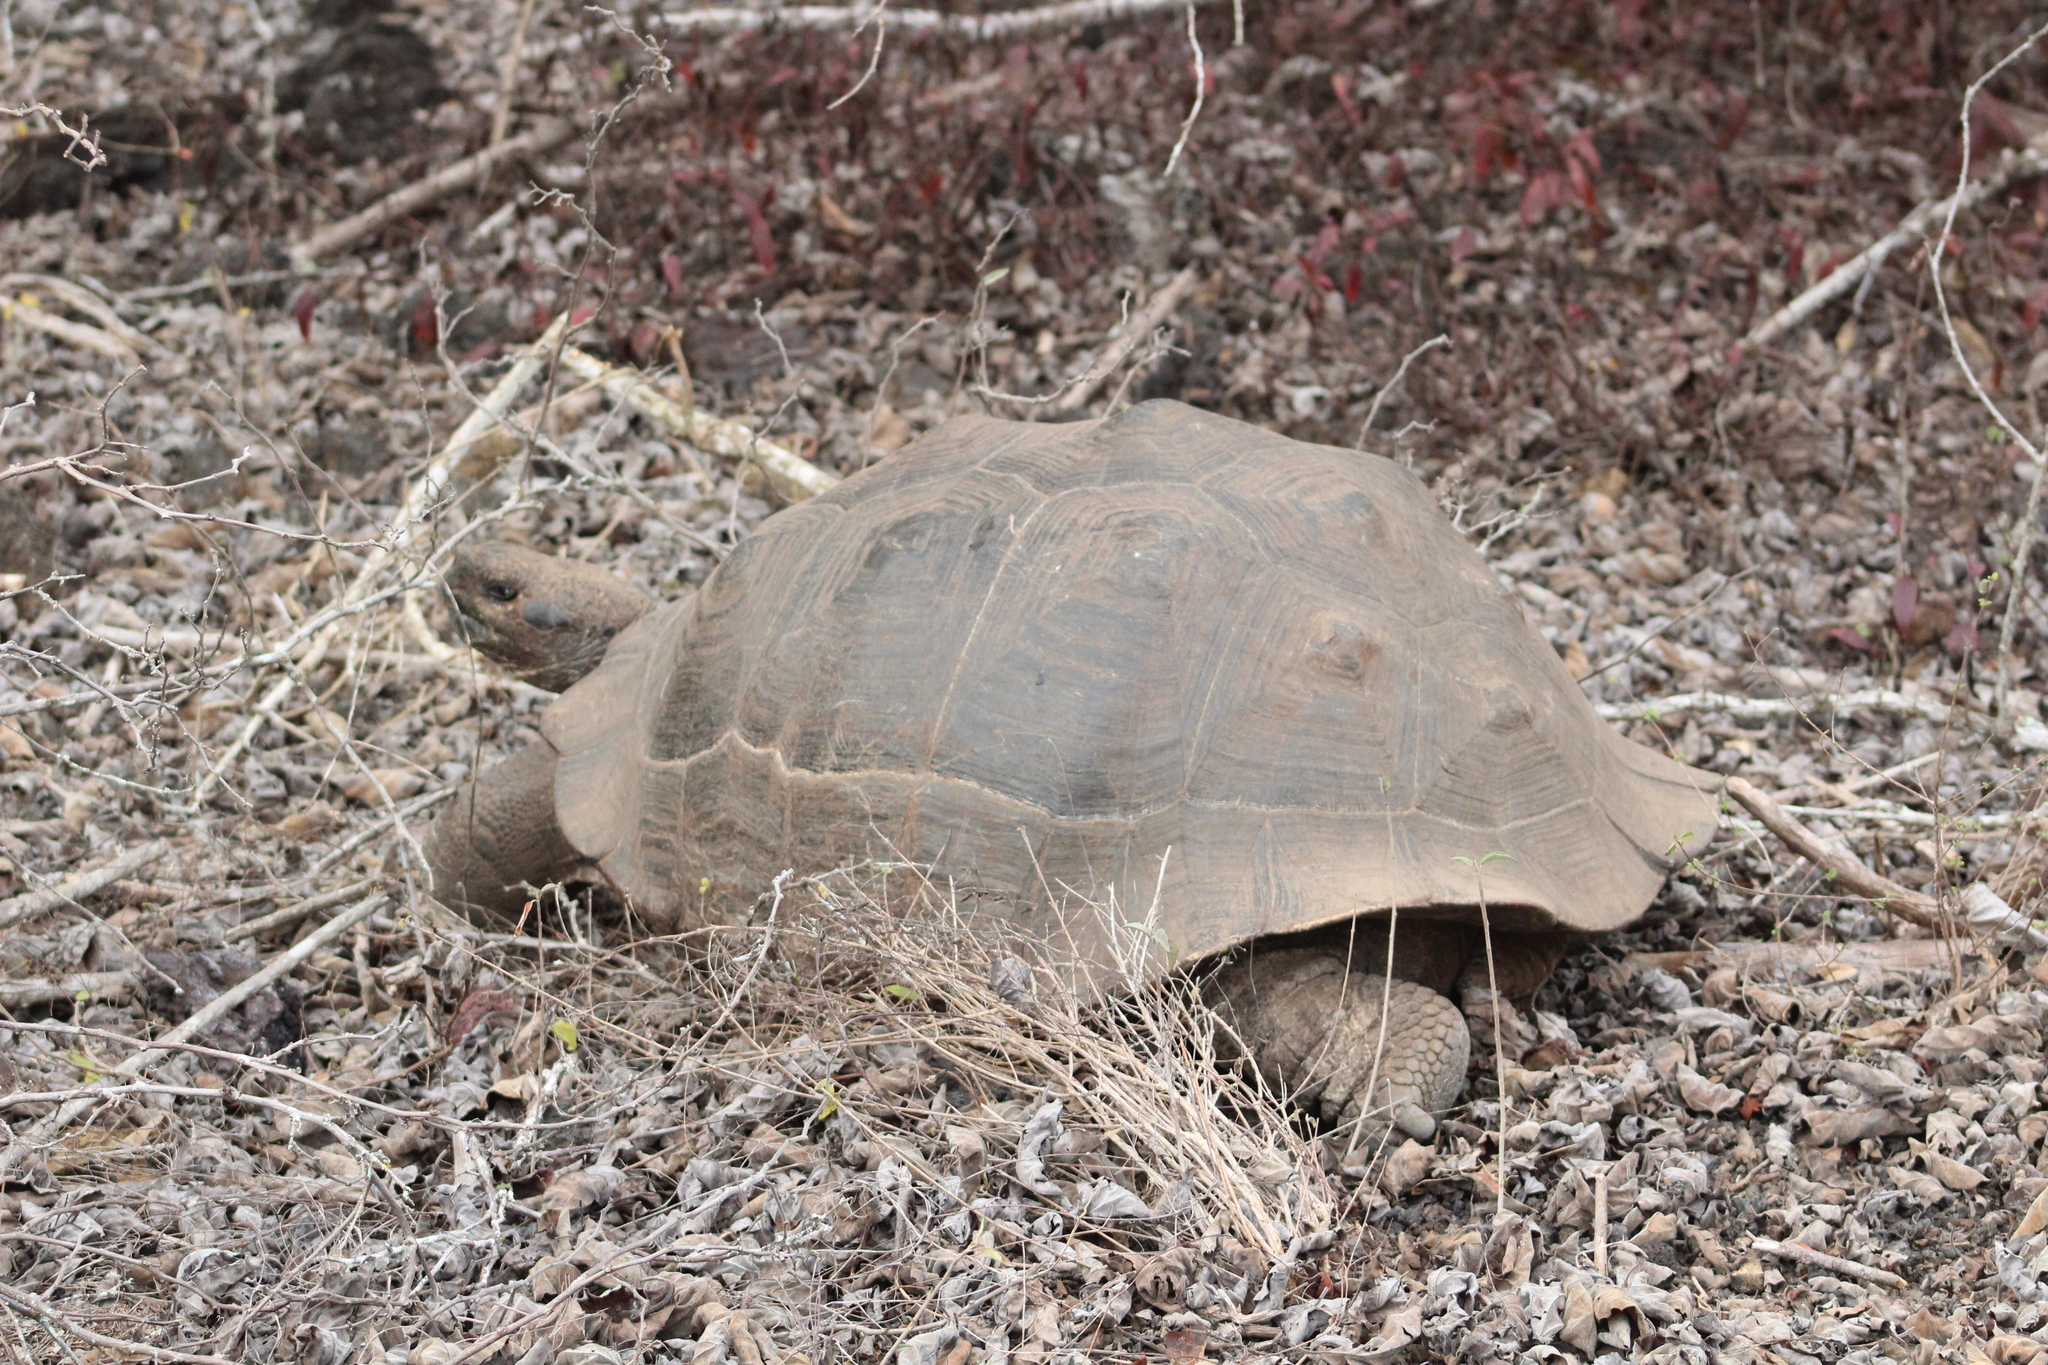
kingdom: Animalia
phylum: Chordata
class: Testudines
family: Testudinidae
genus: Chelonoidis
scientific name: Chelonoidis guntheri
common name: Sierra negra giant tortoise
